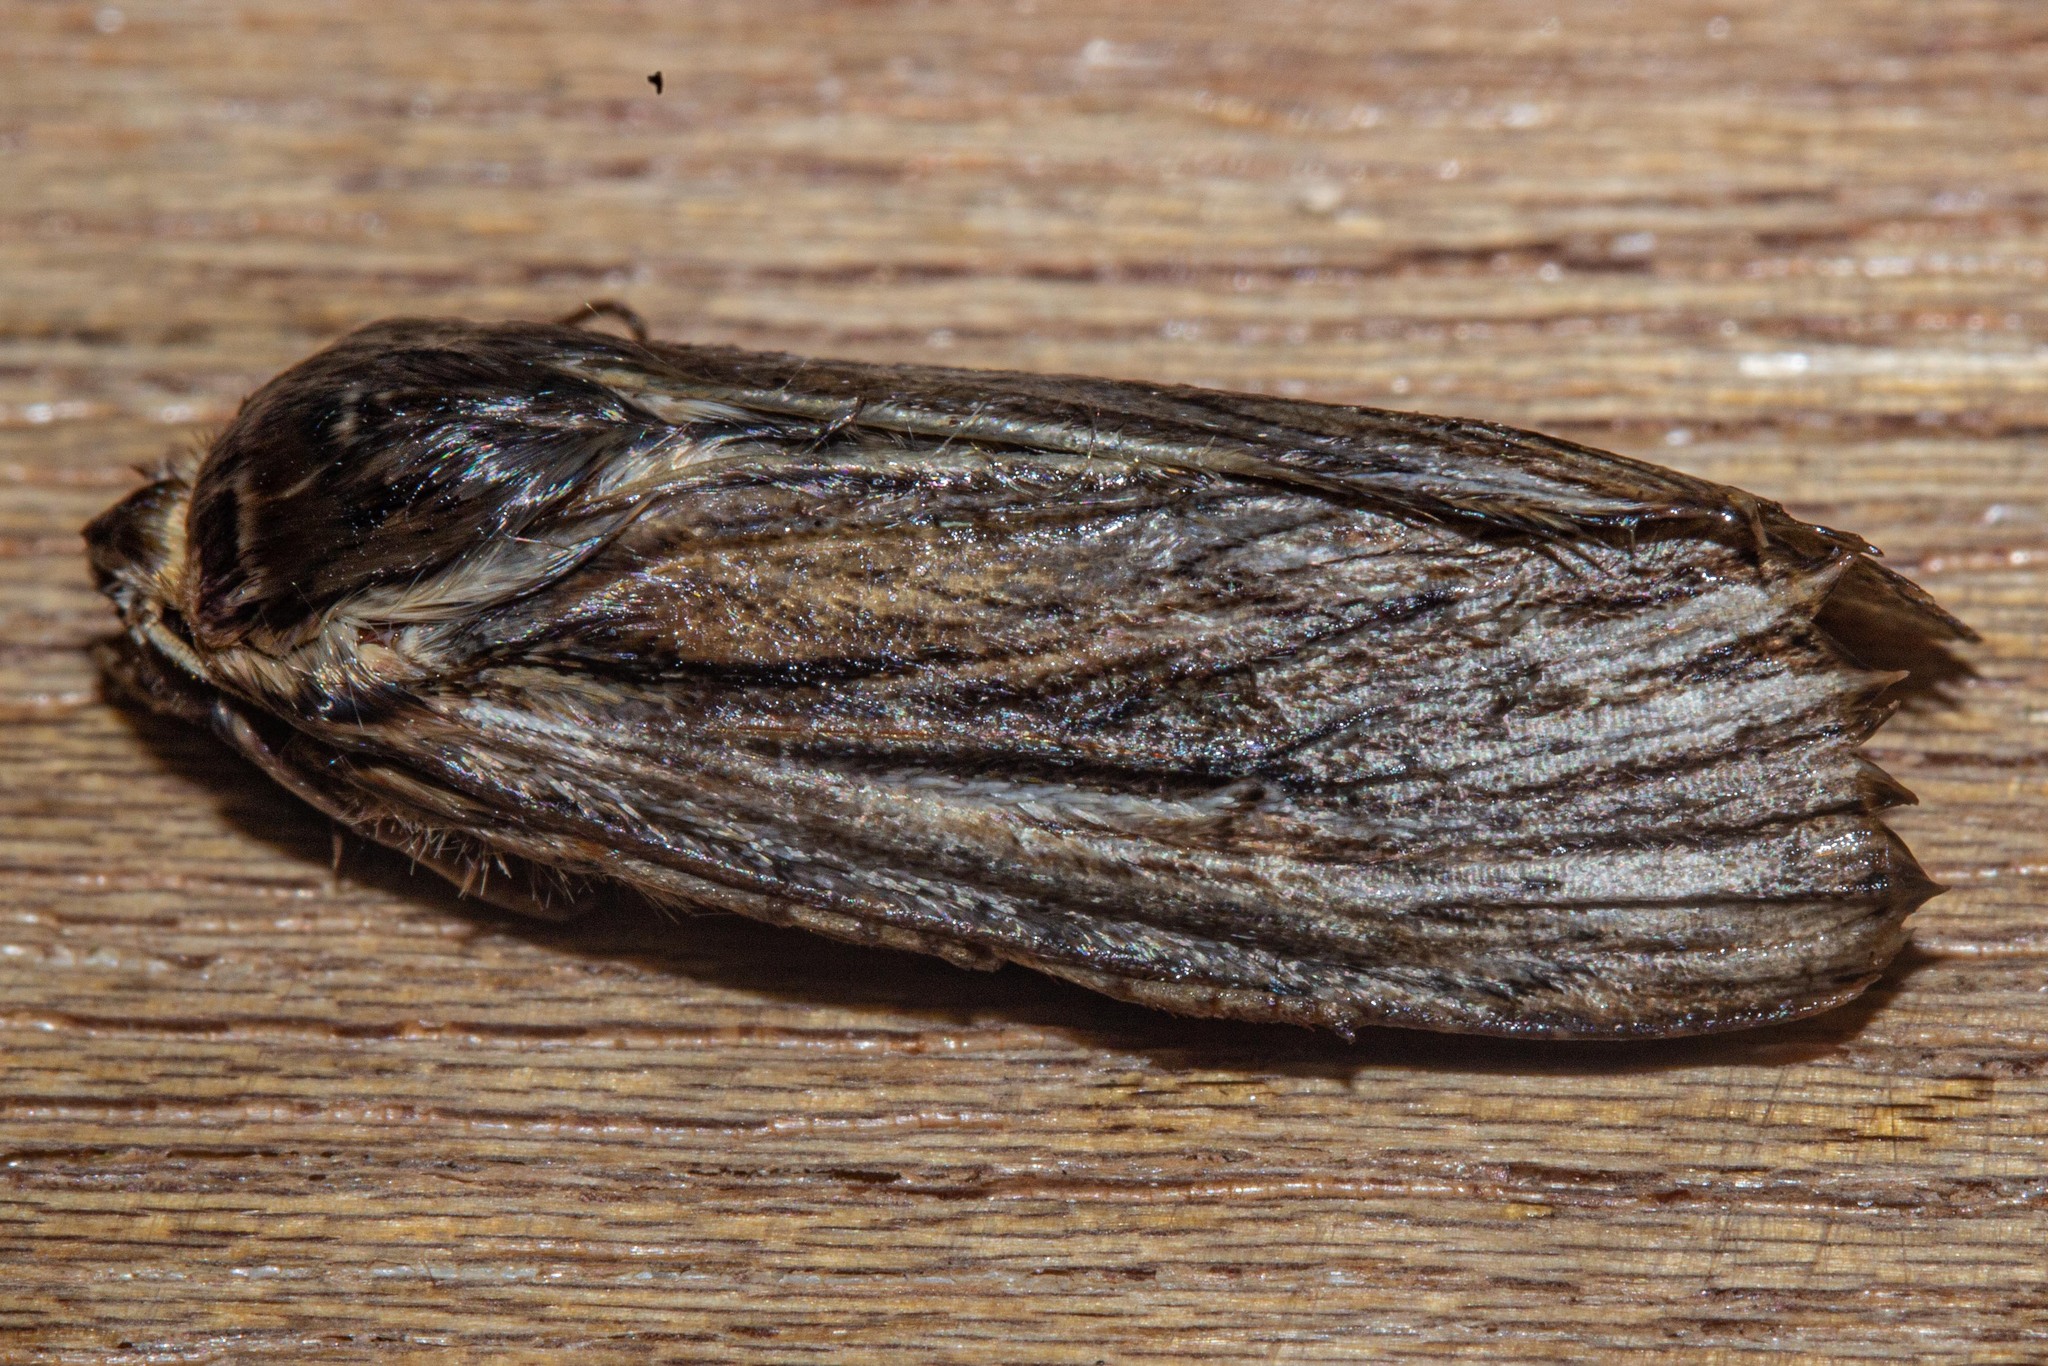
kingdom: Animalia
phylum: Arthropoda
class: Insecta
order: Lepidoptera
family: Noctuidae
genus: Persectania
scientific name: Persectania aversa
